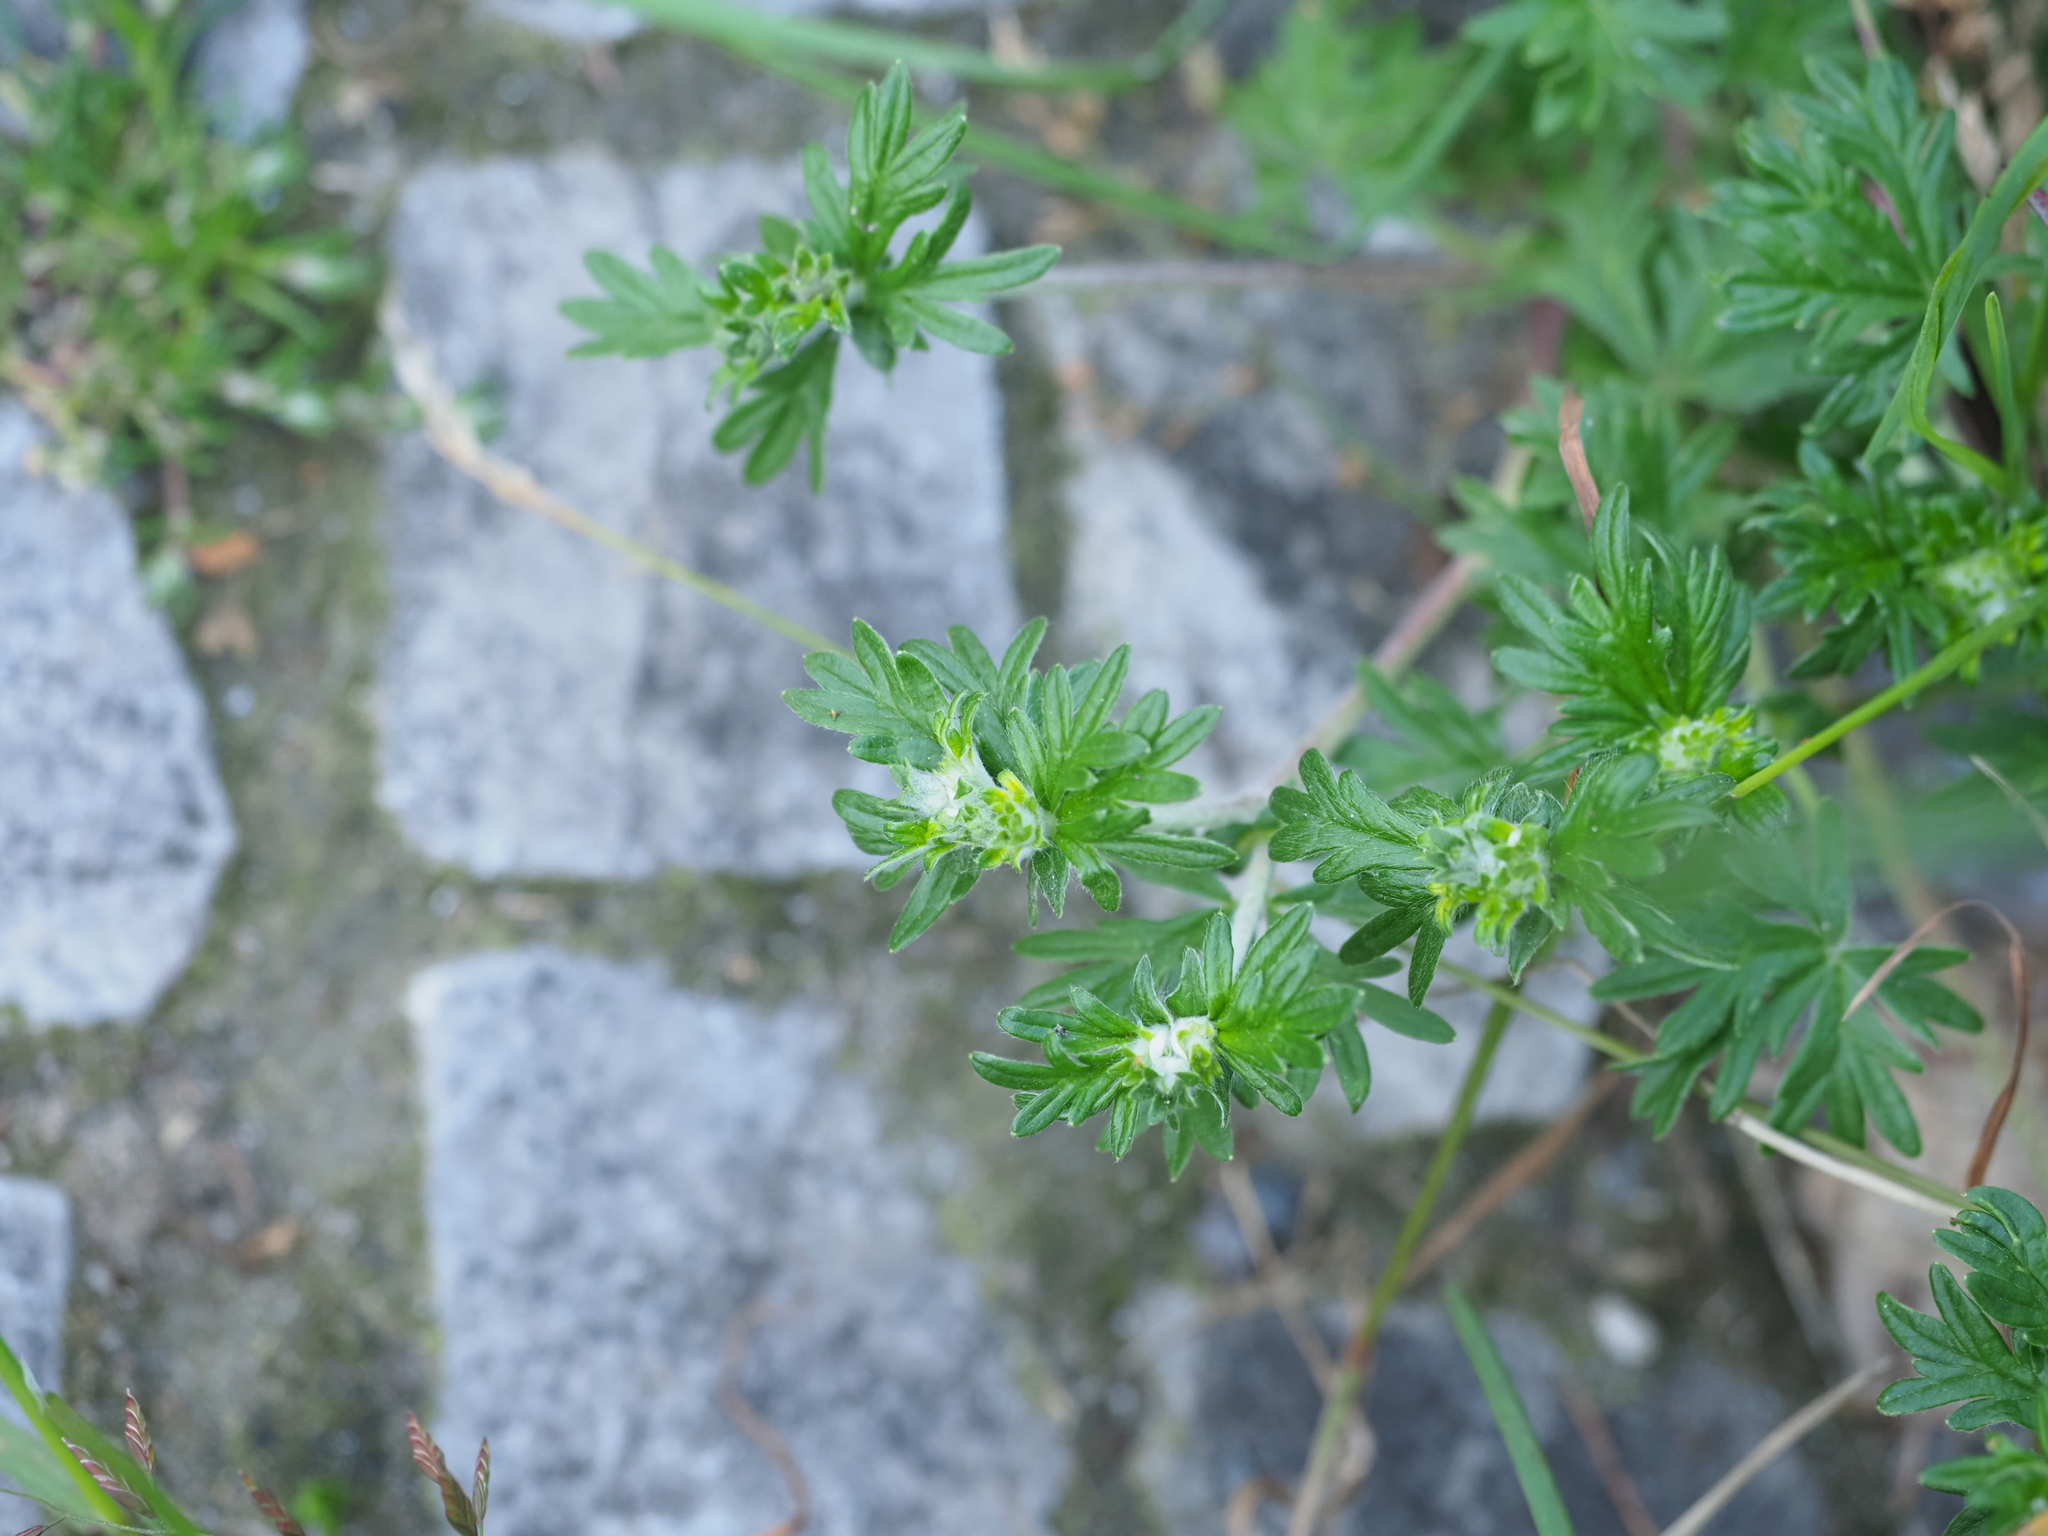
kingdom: Plantae
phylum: Tracheophyta
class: Magnoliopsida
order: Rosales
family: Rosaceae
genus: Potentilla
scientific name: Potentilla argentea
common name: Hoary cinquefoil
